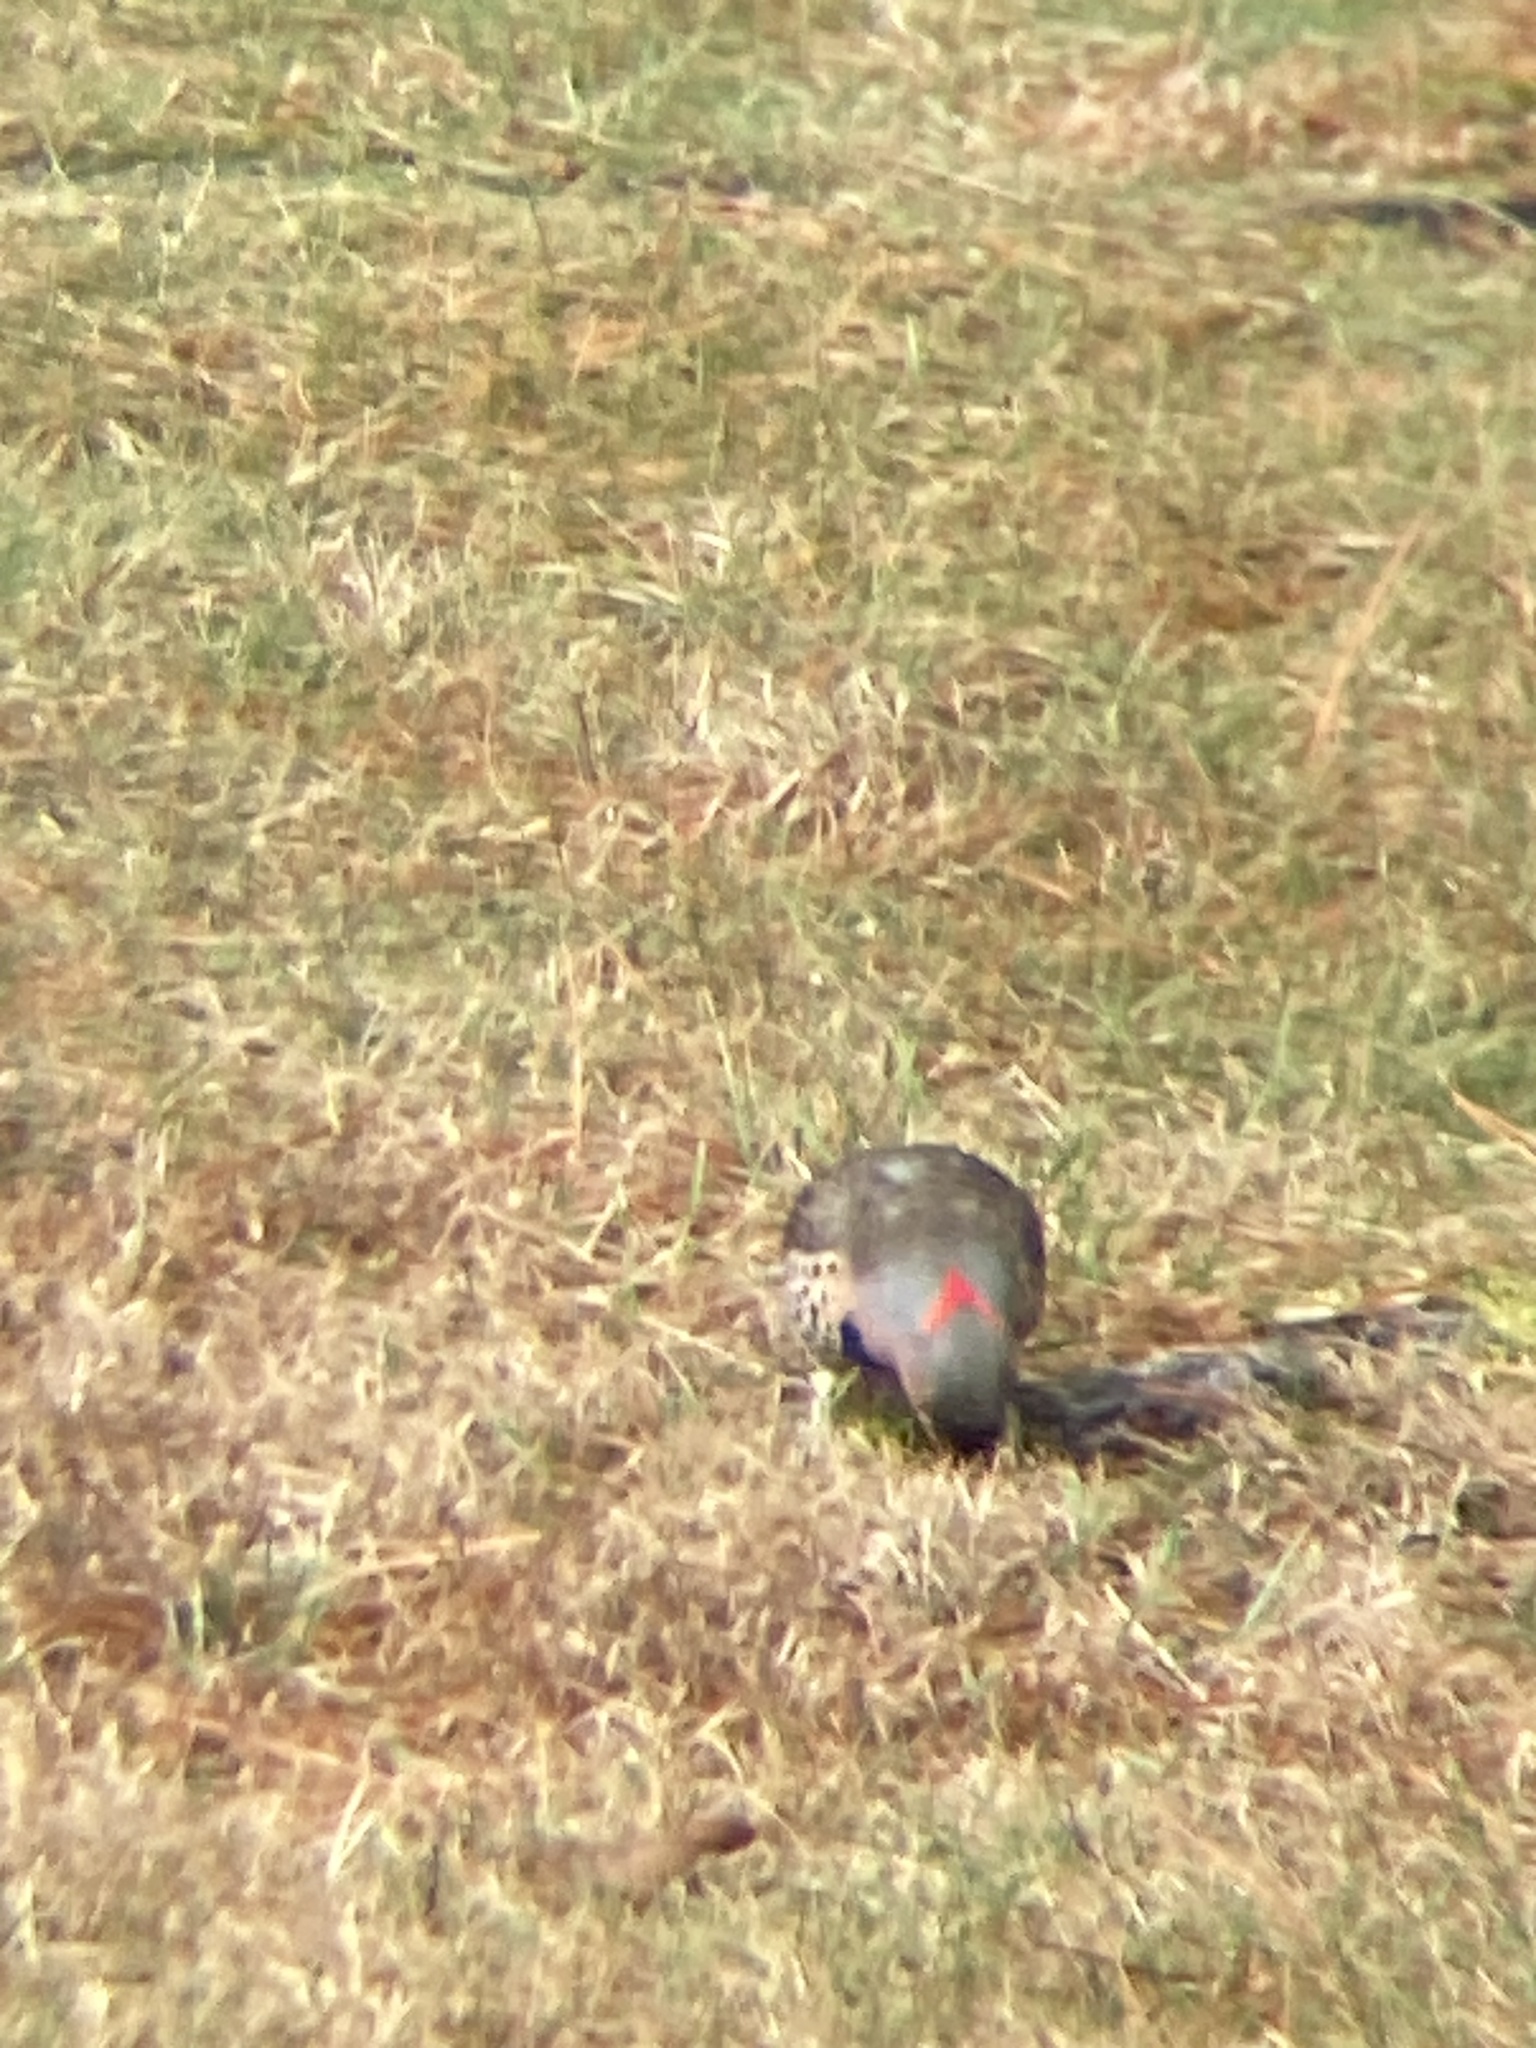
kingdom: Animalia
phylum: Chordata
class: Aves
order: Piciformes
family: Picidae
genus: Colaptes
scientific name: Colaptes auratus
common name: Northern flicker
